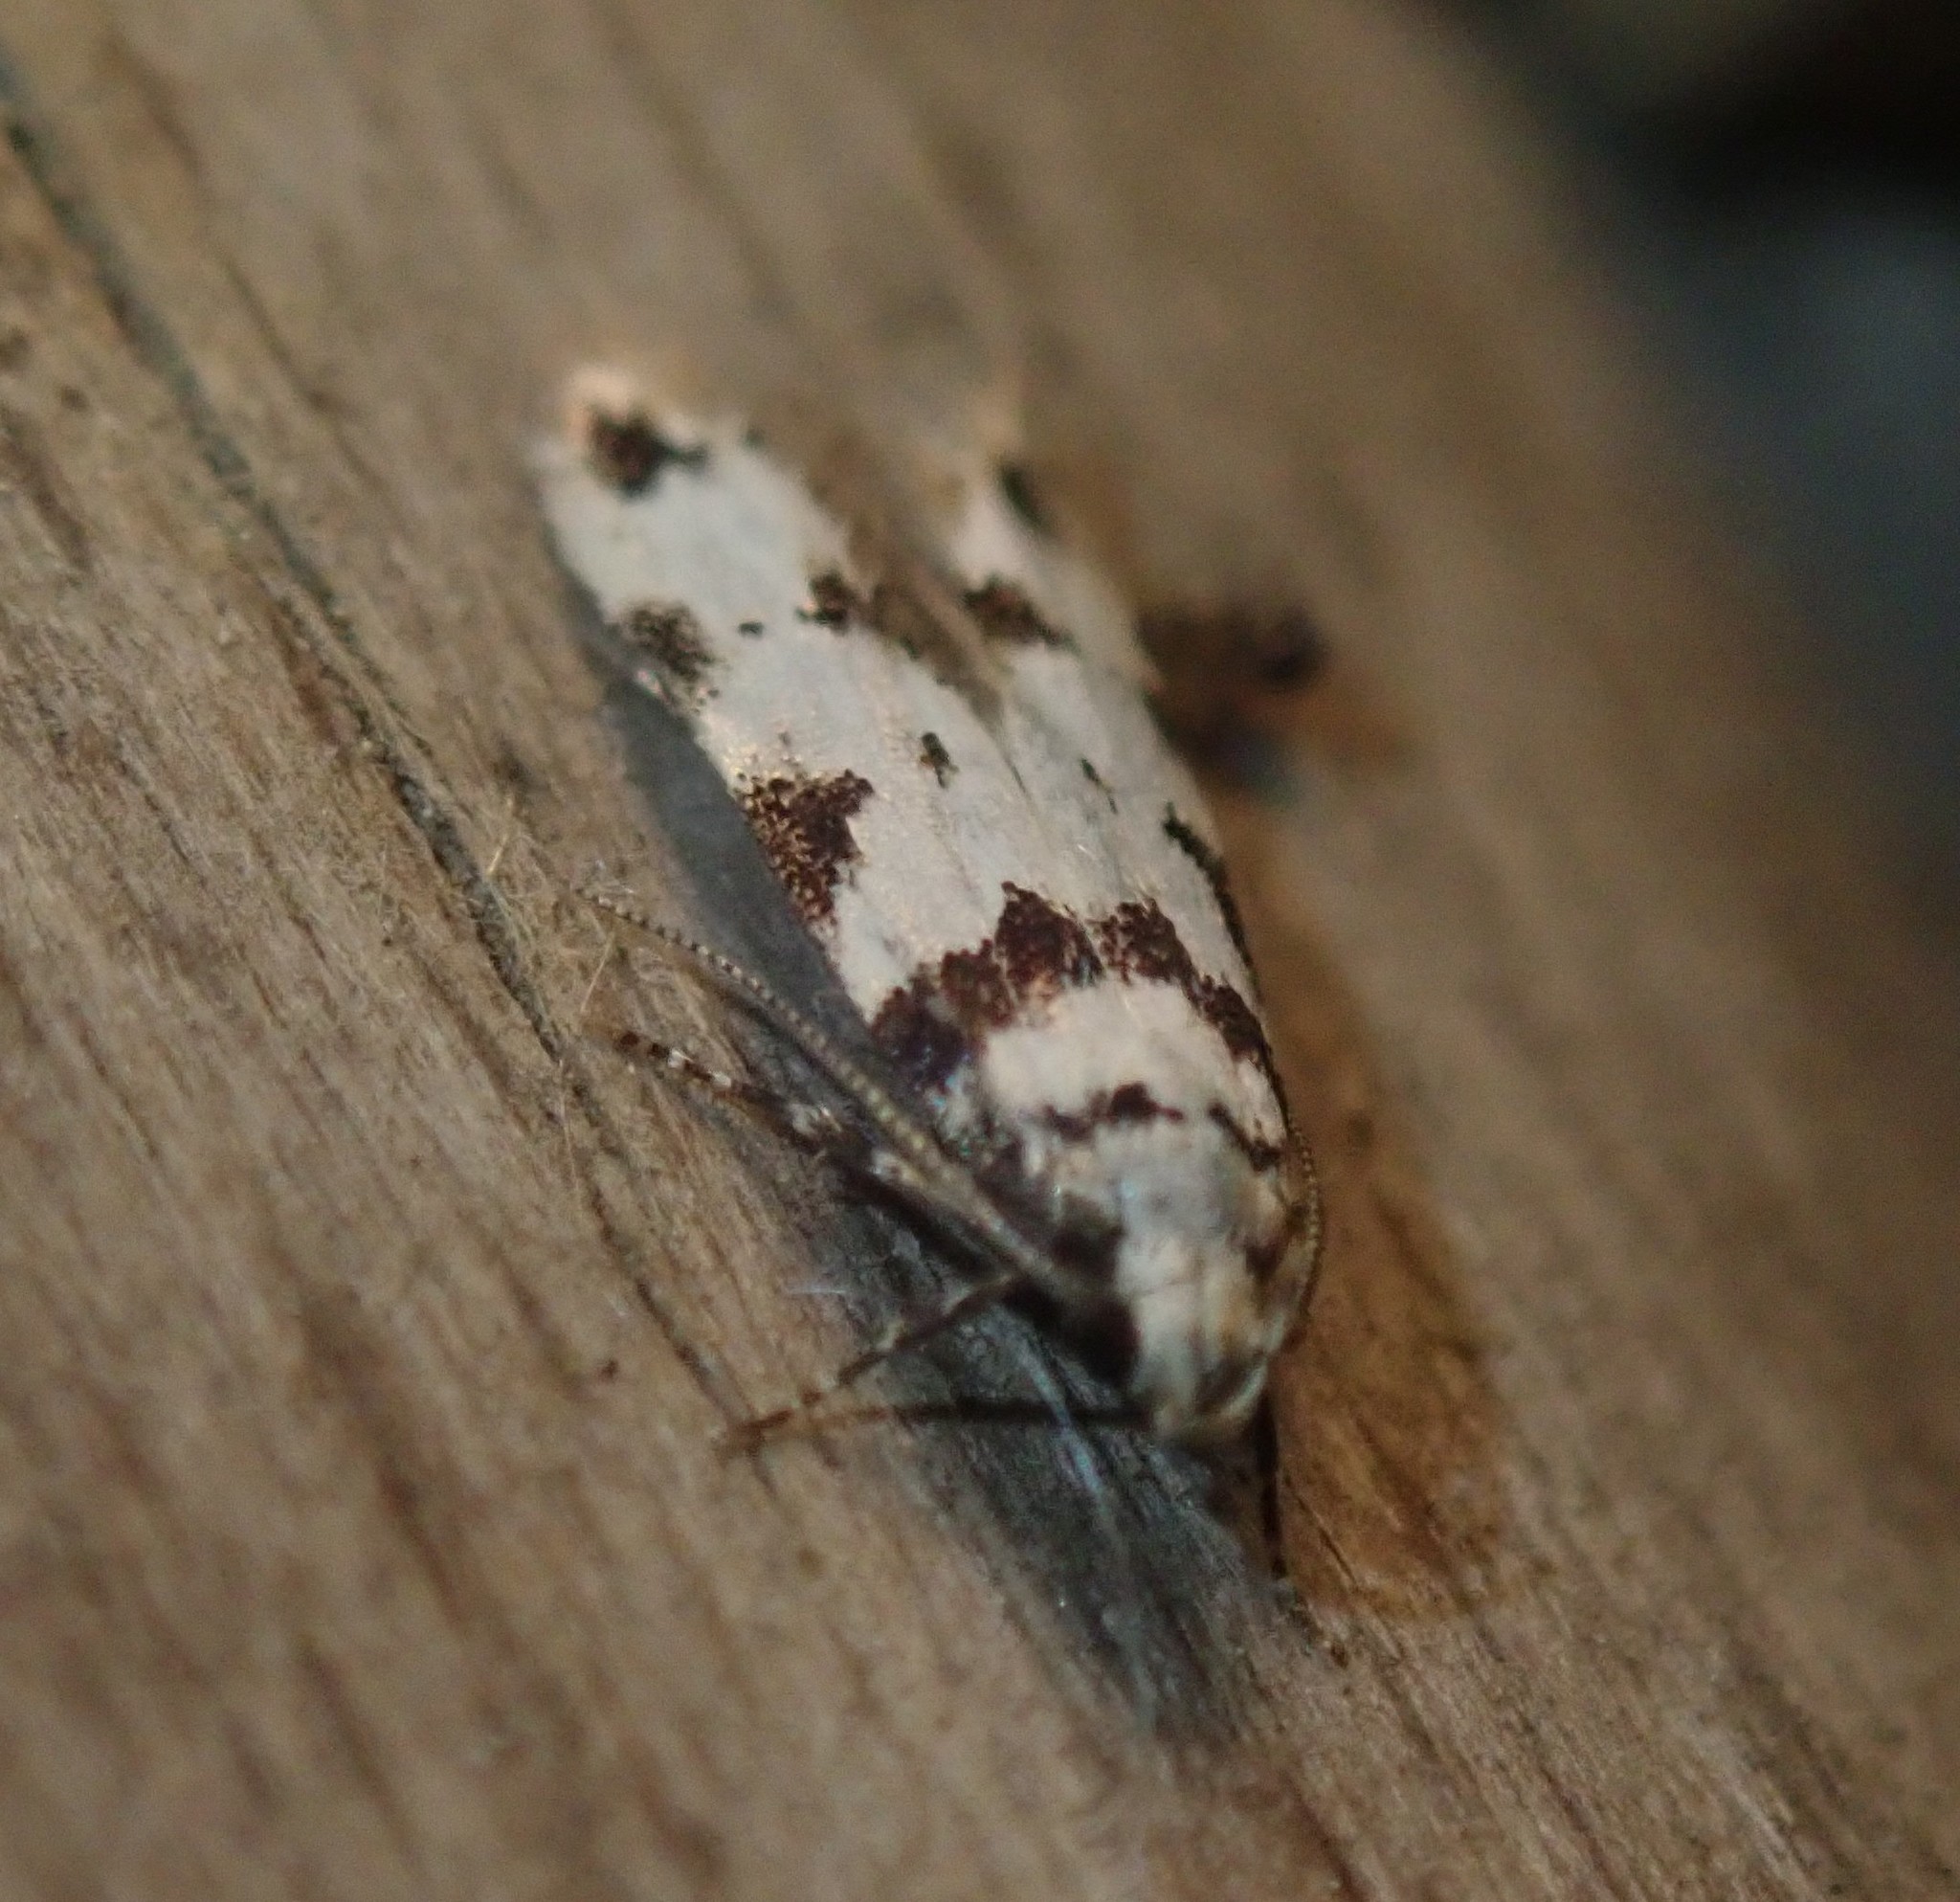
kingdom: Animalia
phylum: Arthropoda
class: Insecta
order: Lepidoptera
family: Gelechiidae
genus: Pseudotelphusa
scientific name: Pseudotelphusa scalella
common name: Black-spotted groundling
